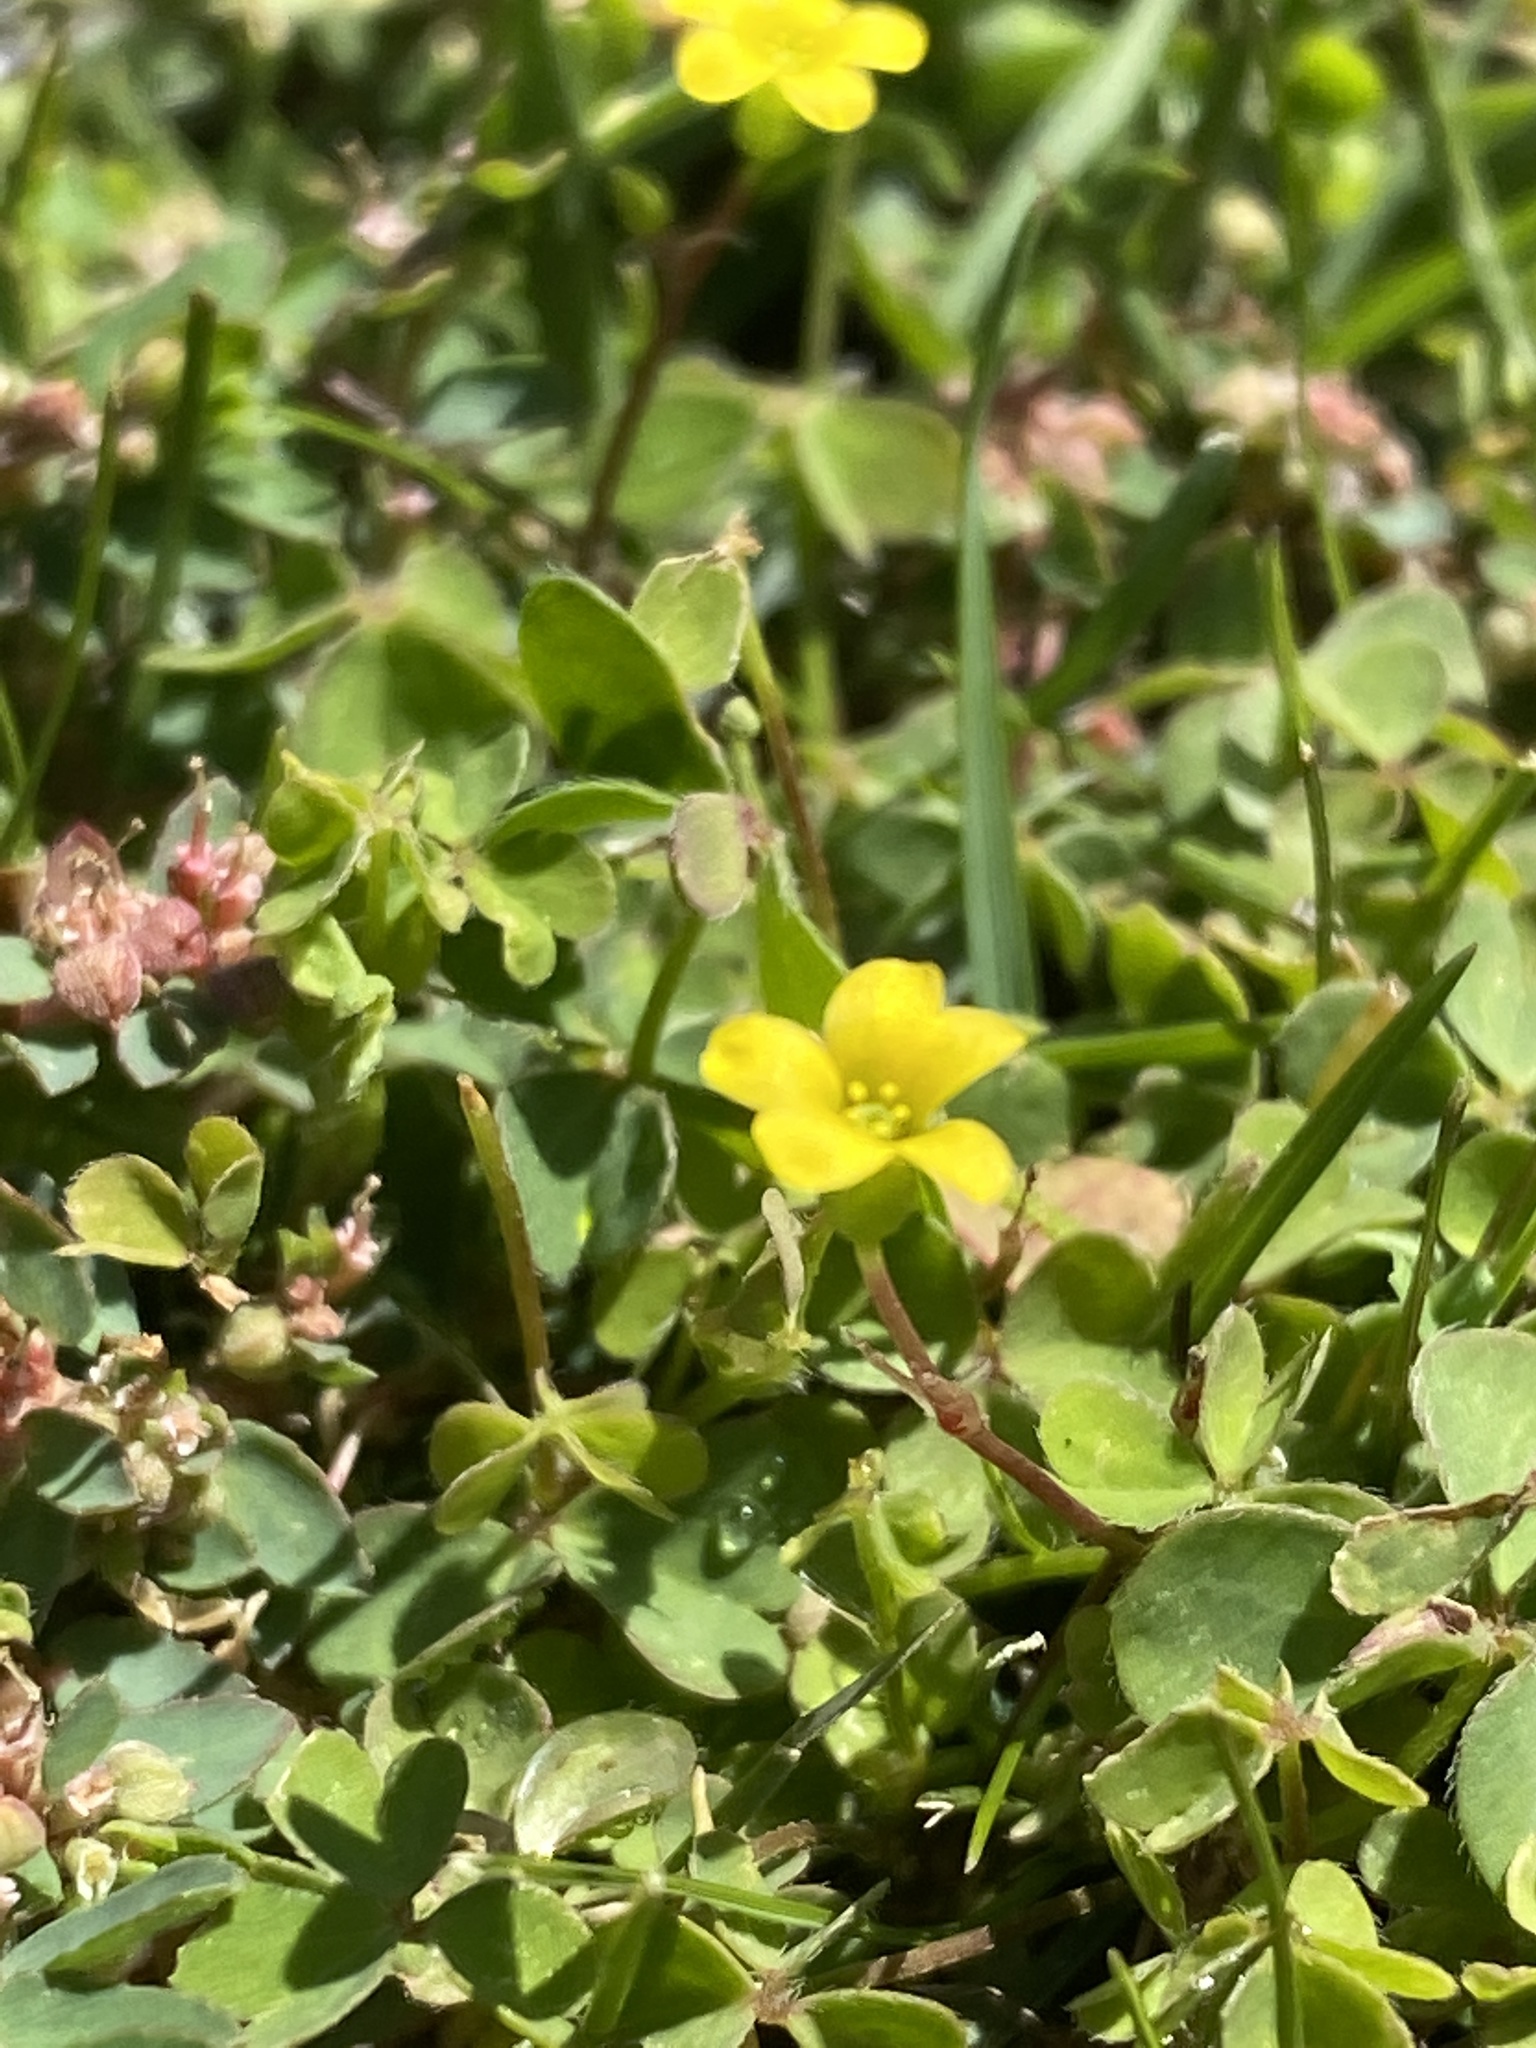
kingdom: Plantae
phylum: Tracheophyta
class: Magnoliopsida
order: Oxalidales
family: Oxalidaceae
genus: Oxalis
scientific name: Oxalis corniculata
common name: Procumbent yellow-sorrel
